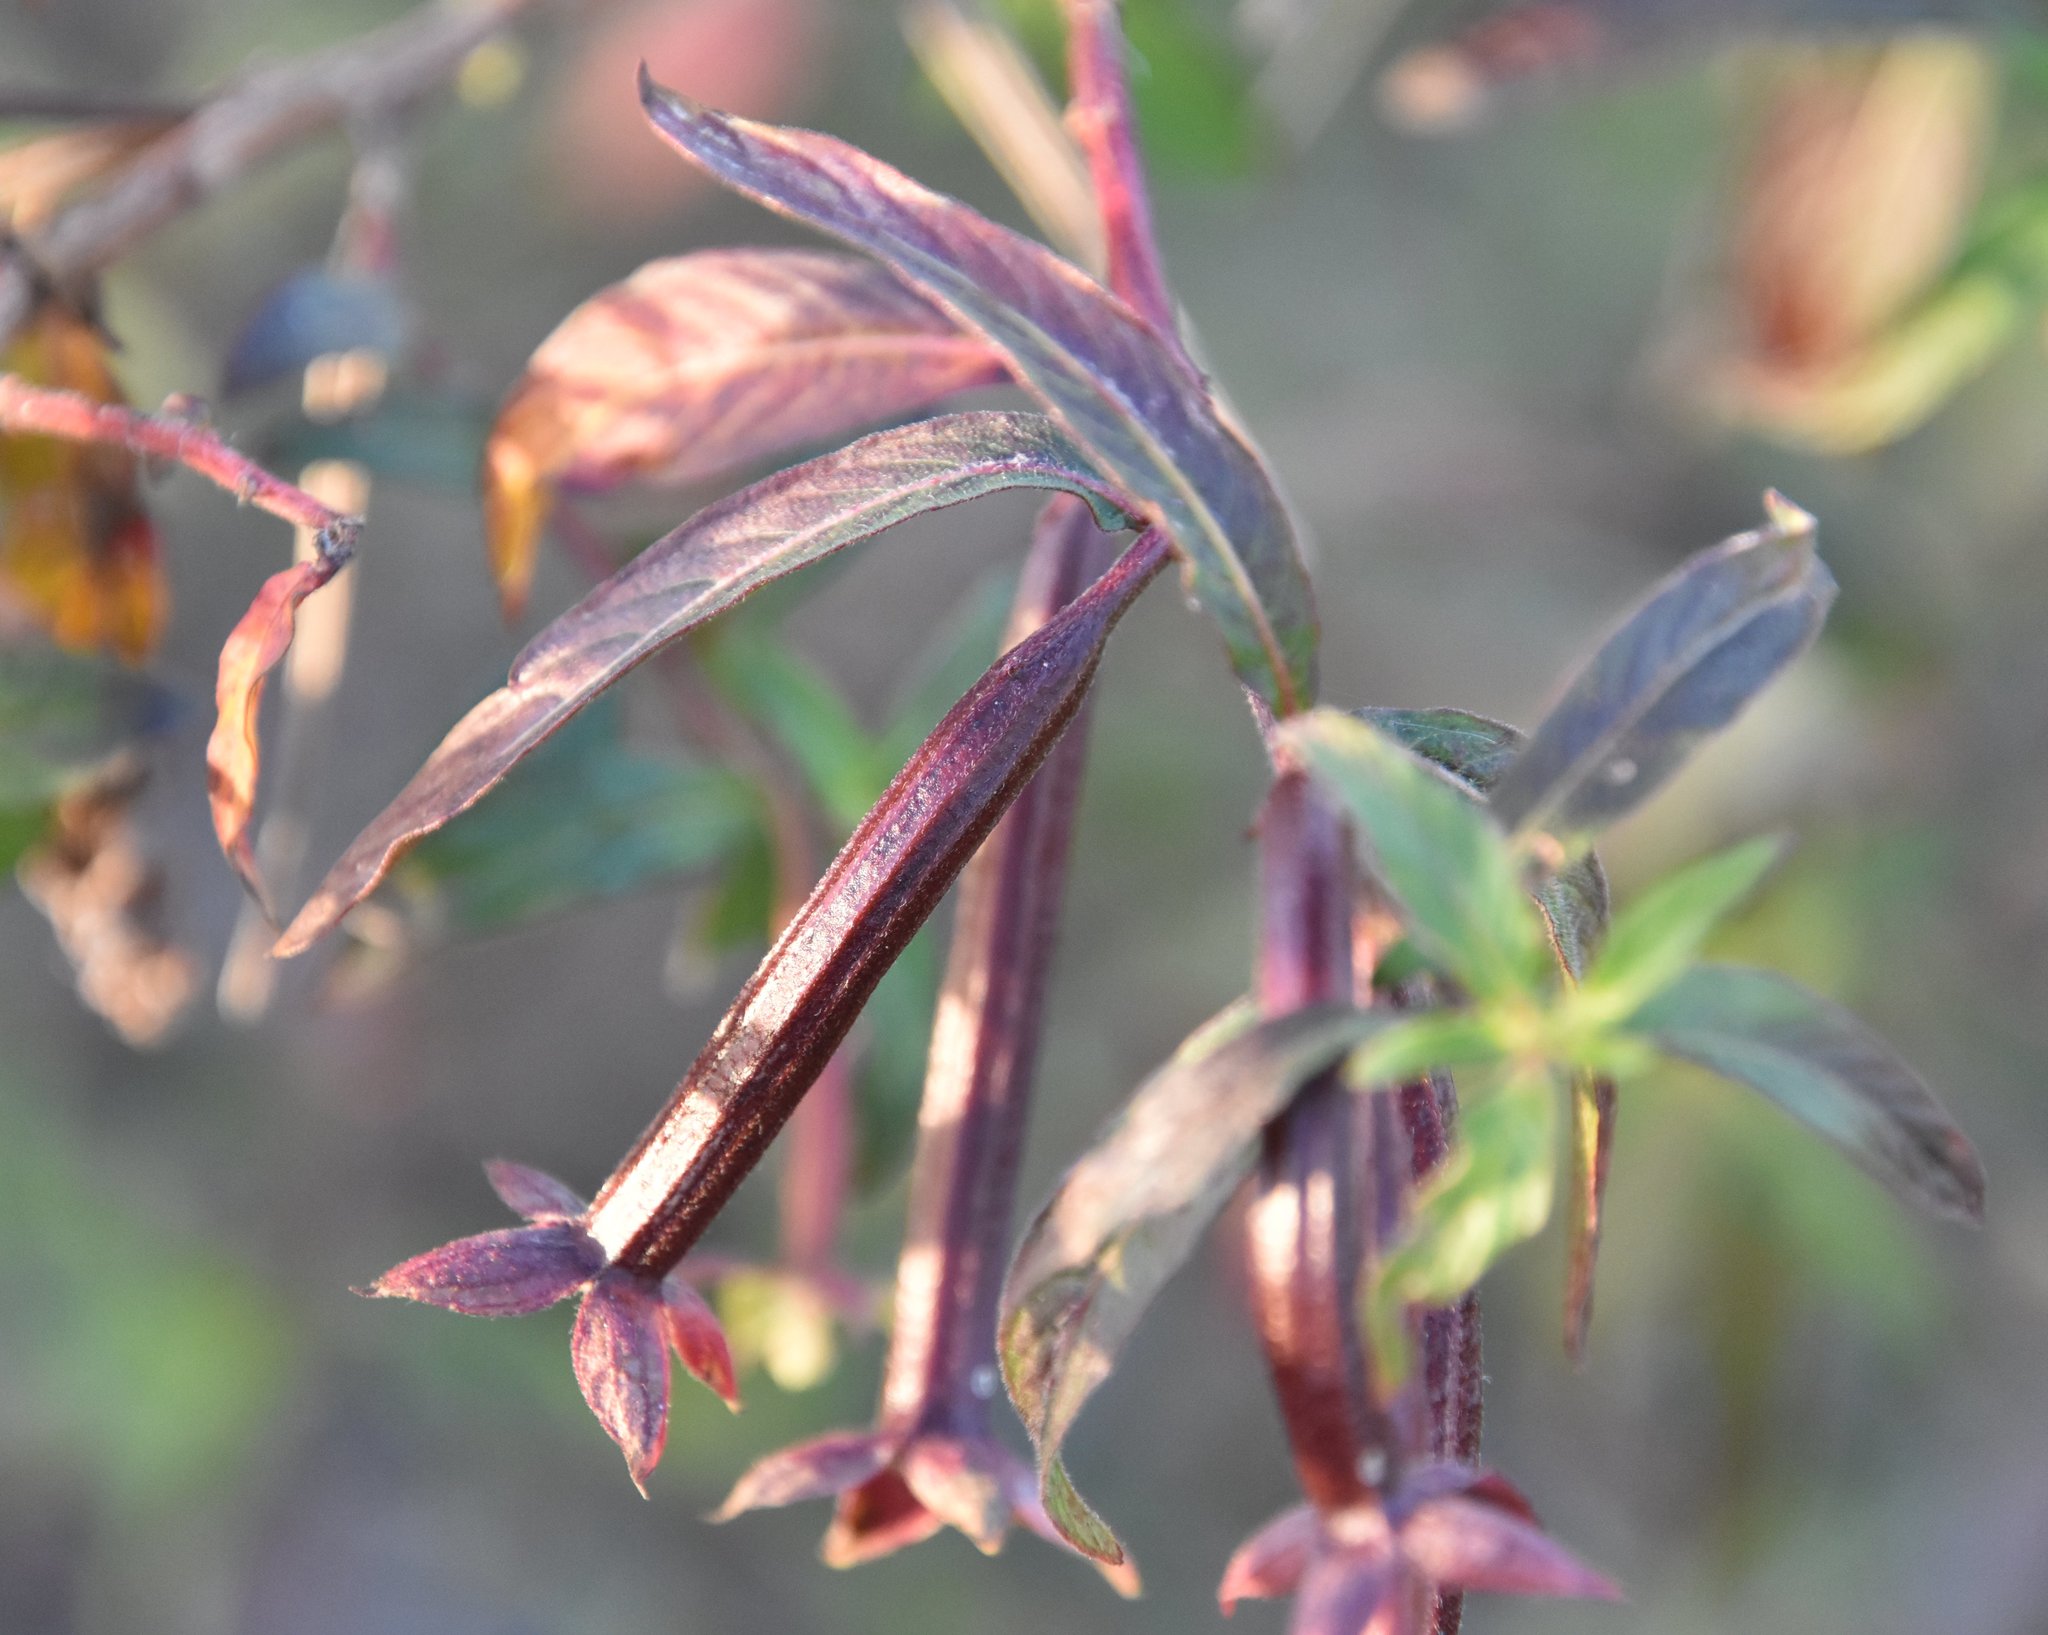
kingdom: Plantae
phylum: Tracheophyta
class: Magnoliopsida
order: Myrtales
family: Onagraceae
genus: Ludwigia
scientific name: Ludwigia octovalvis
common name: Water-primrose
